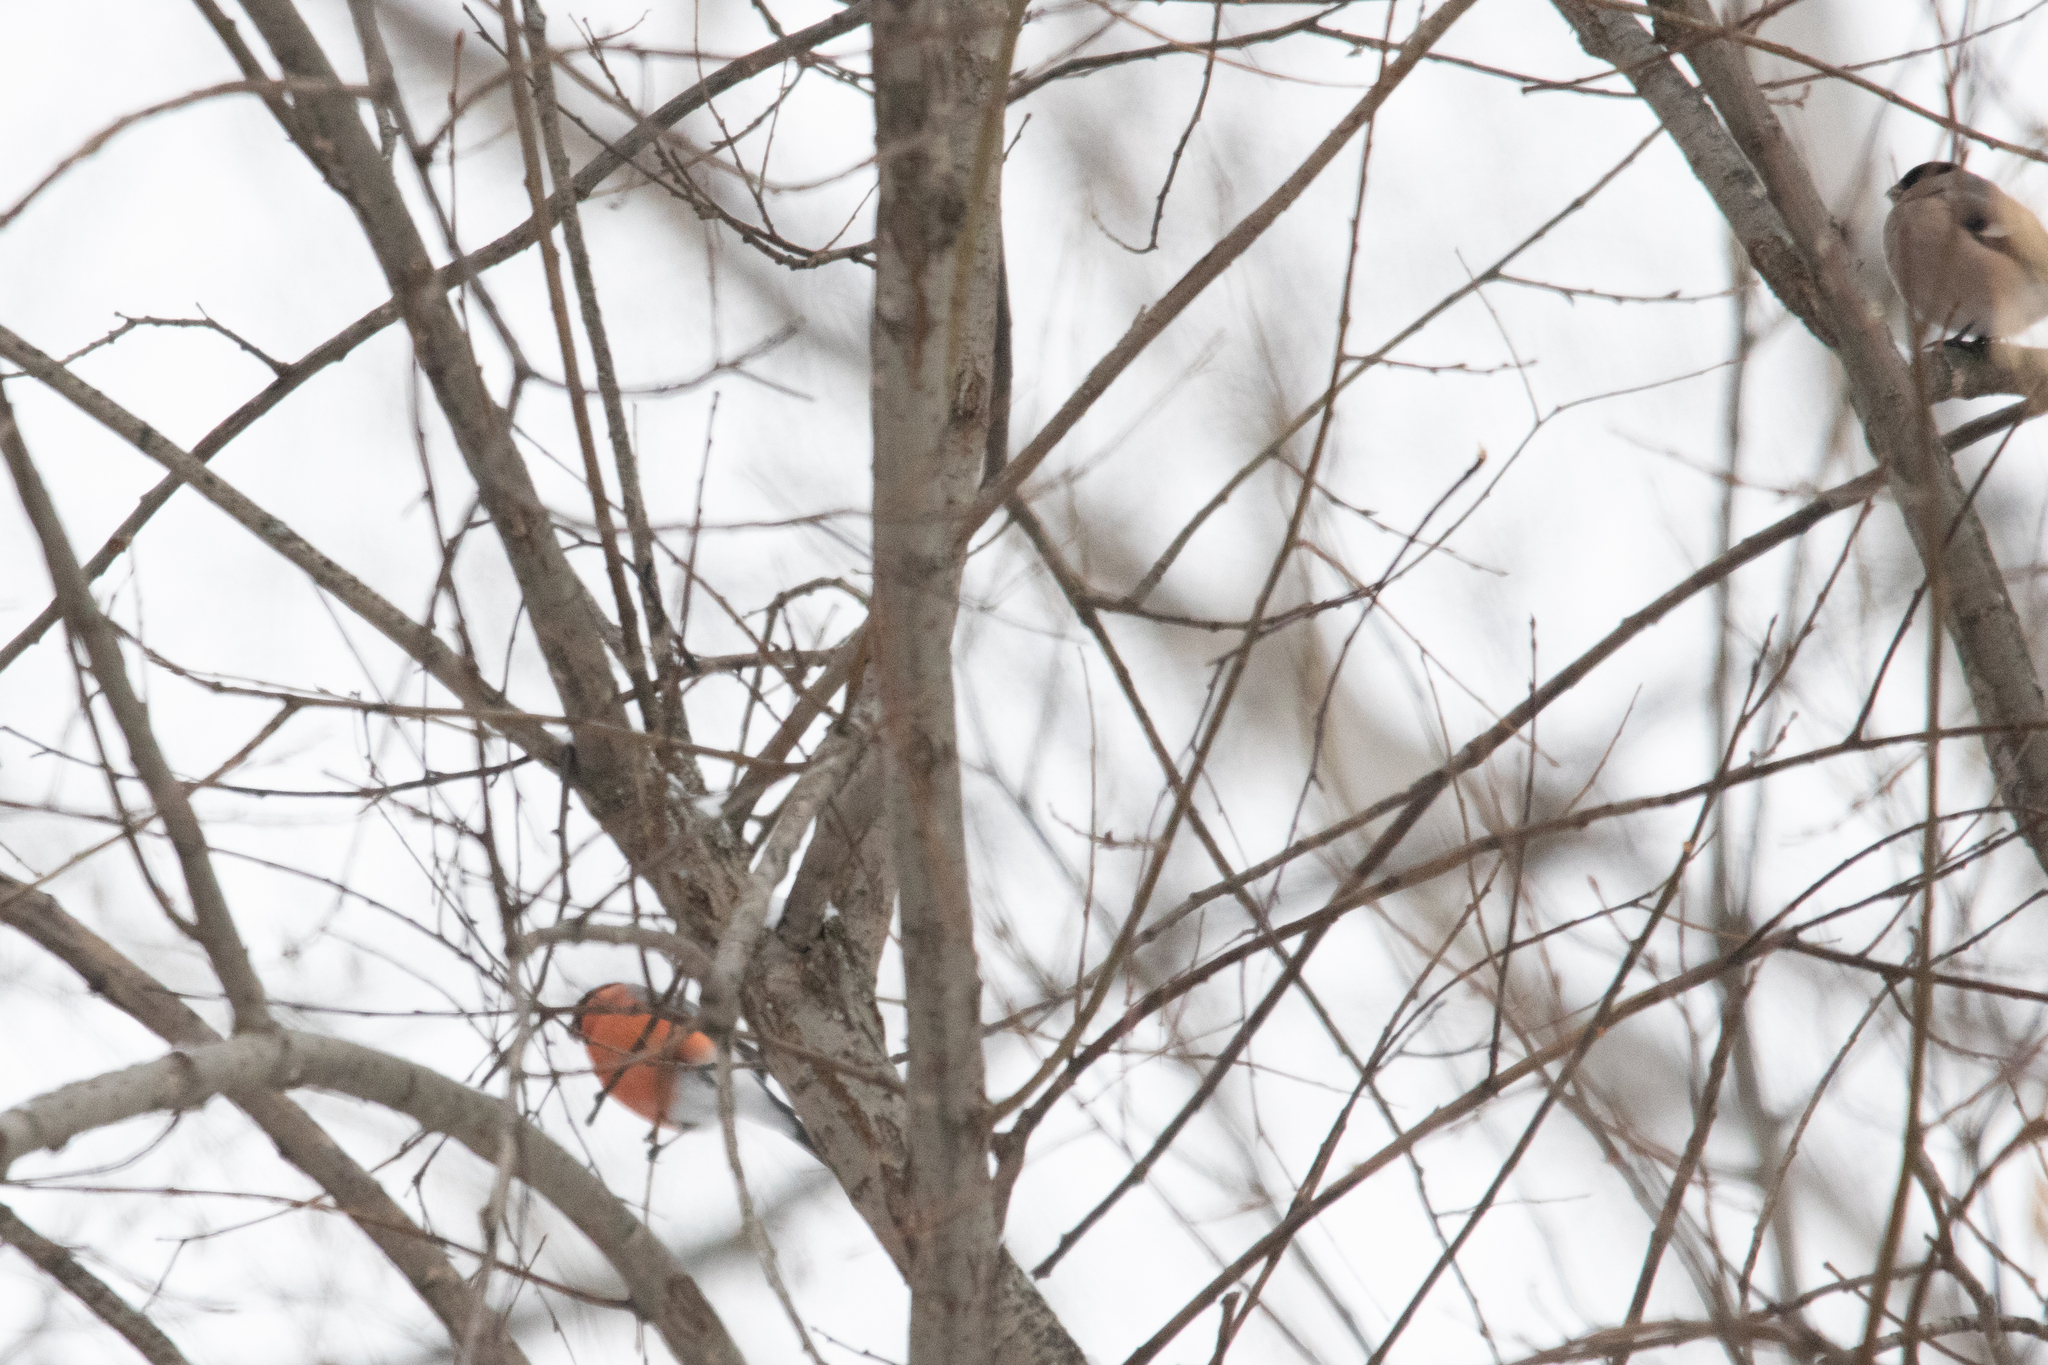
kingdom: Animalia
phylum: Chordata
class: Aves
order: Passeriformes
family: Fringillidae
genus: Pyrrhula
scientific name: Pyrrhula pyrrhula
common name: Eurasian bullfinch
